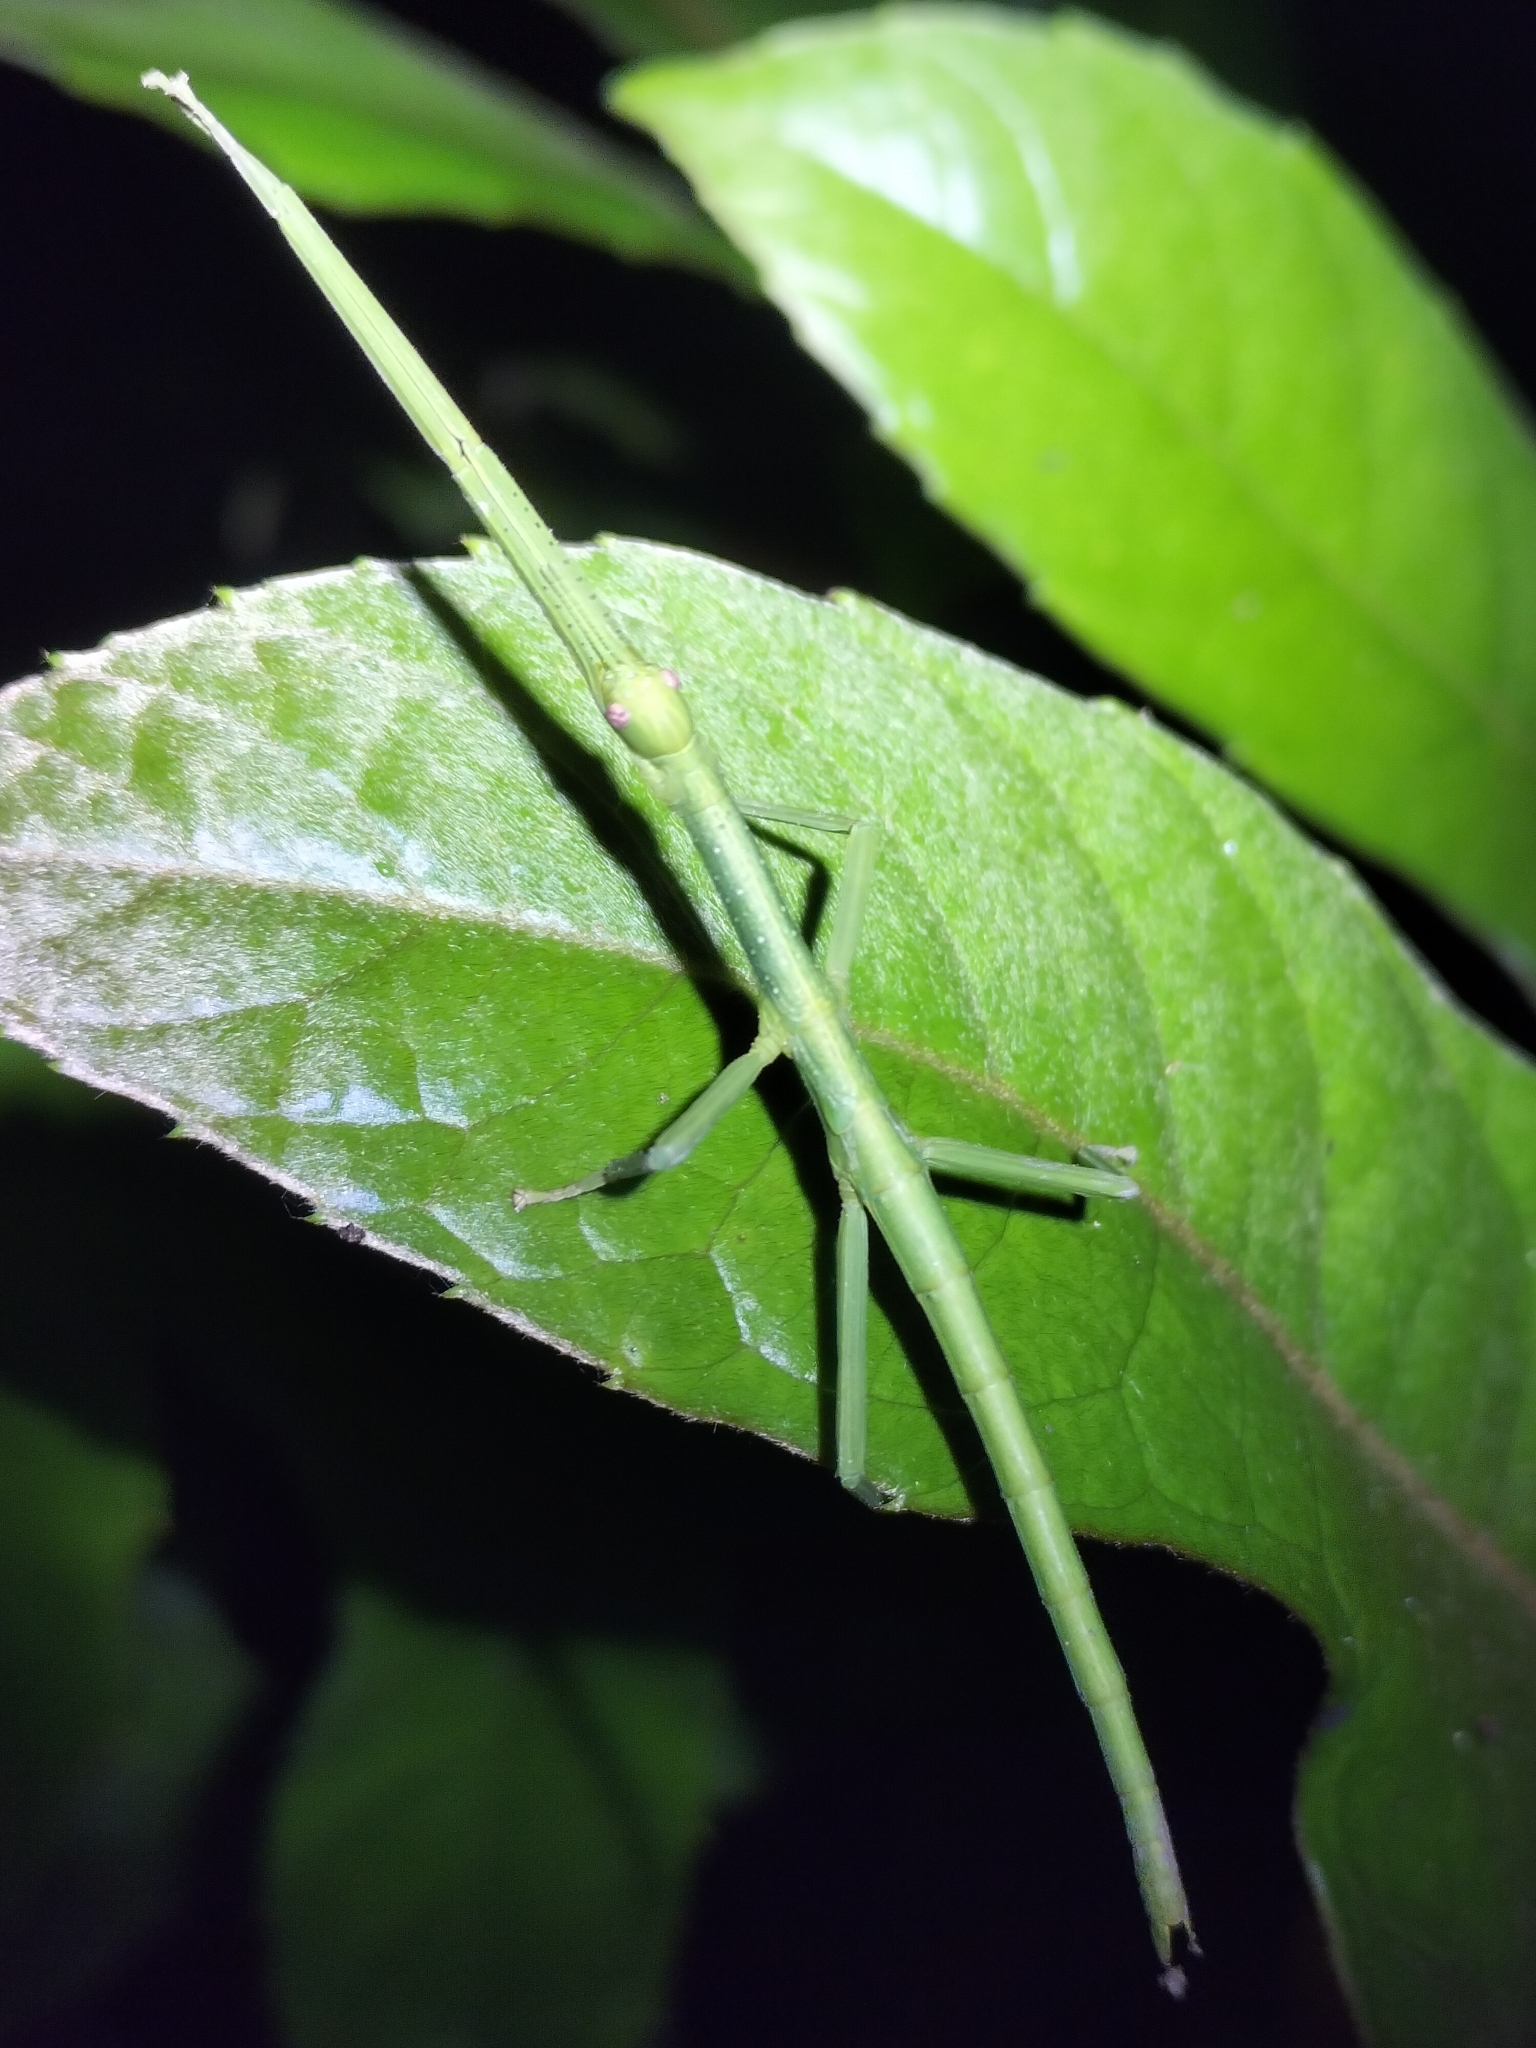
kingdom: Animalia
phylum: Arthropoda
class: Insecta
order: Phasmida
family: Phasmatidae
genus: Anchiale
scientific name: Anchiale briareus
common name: Strong stick insect
